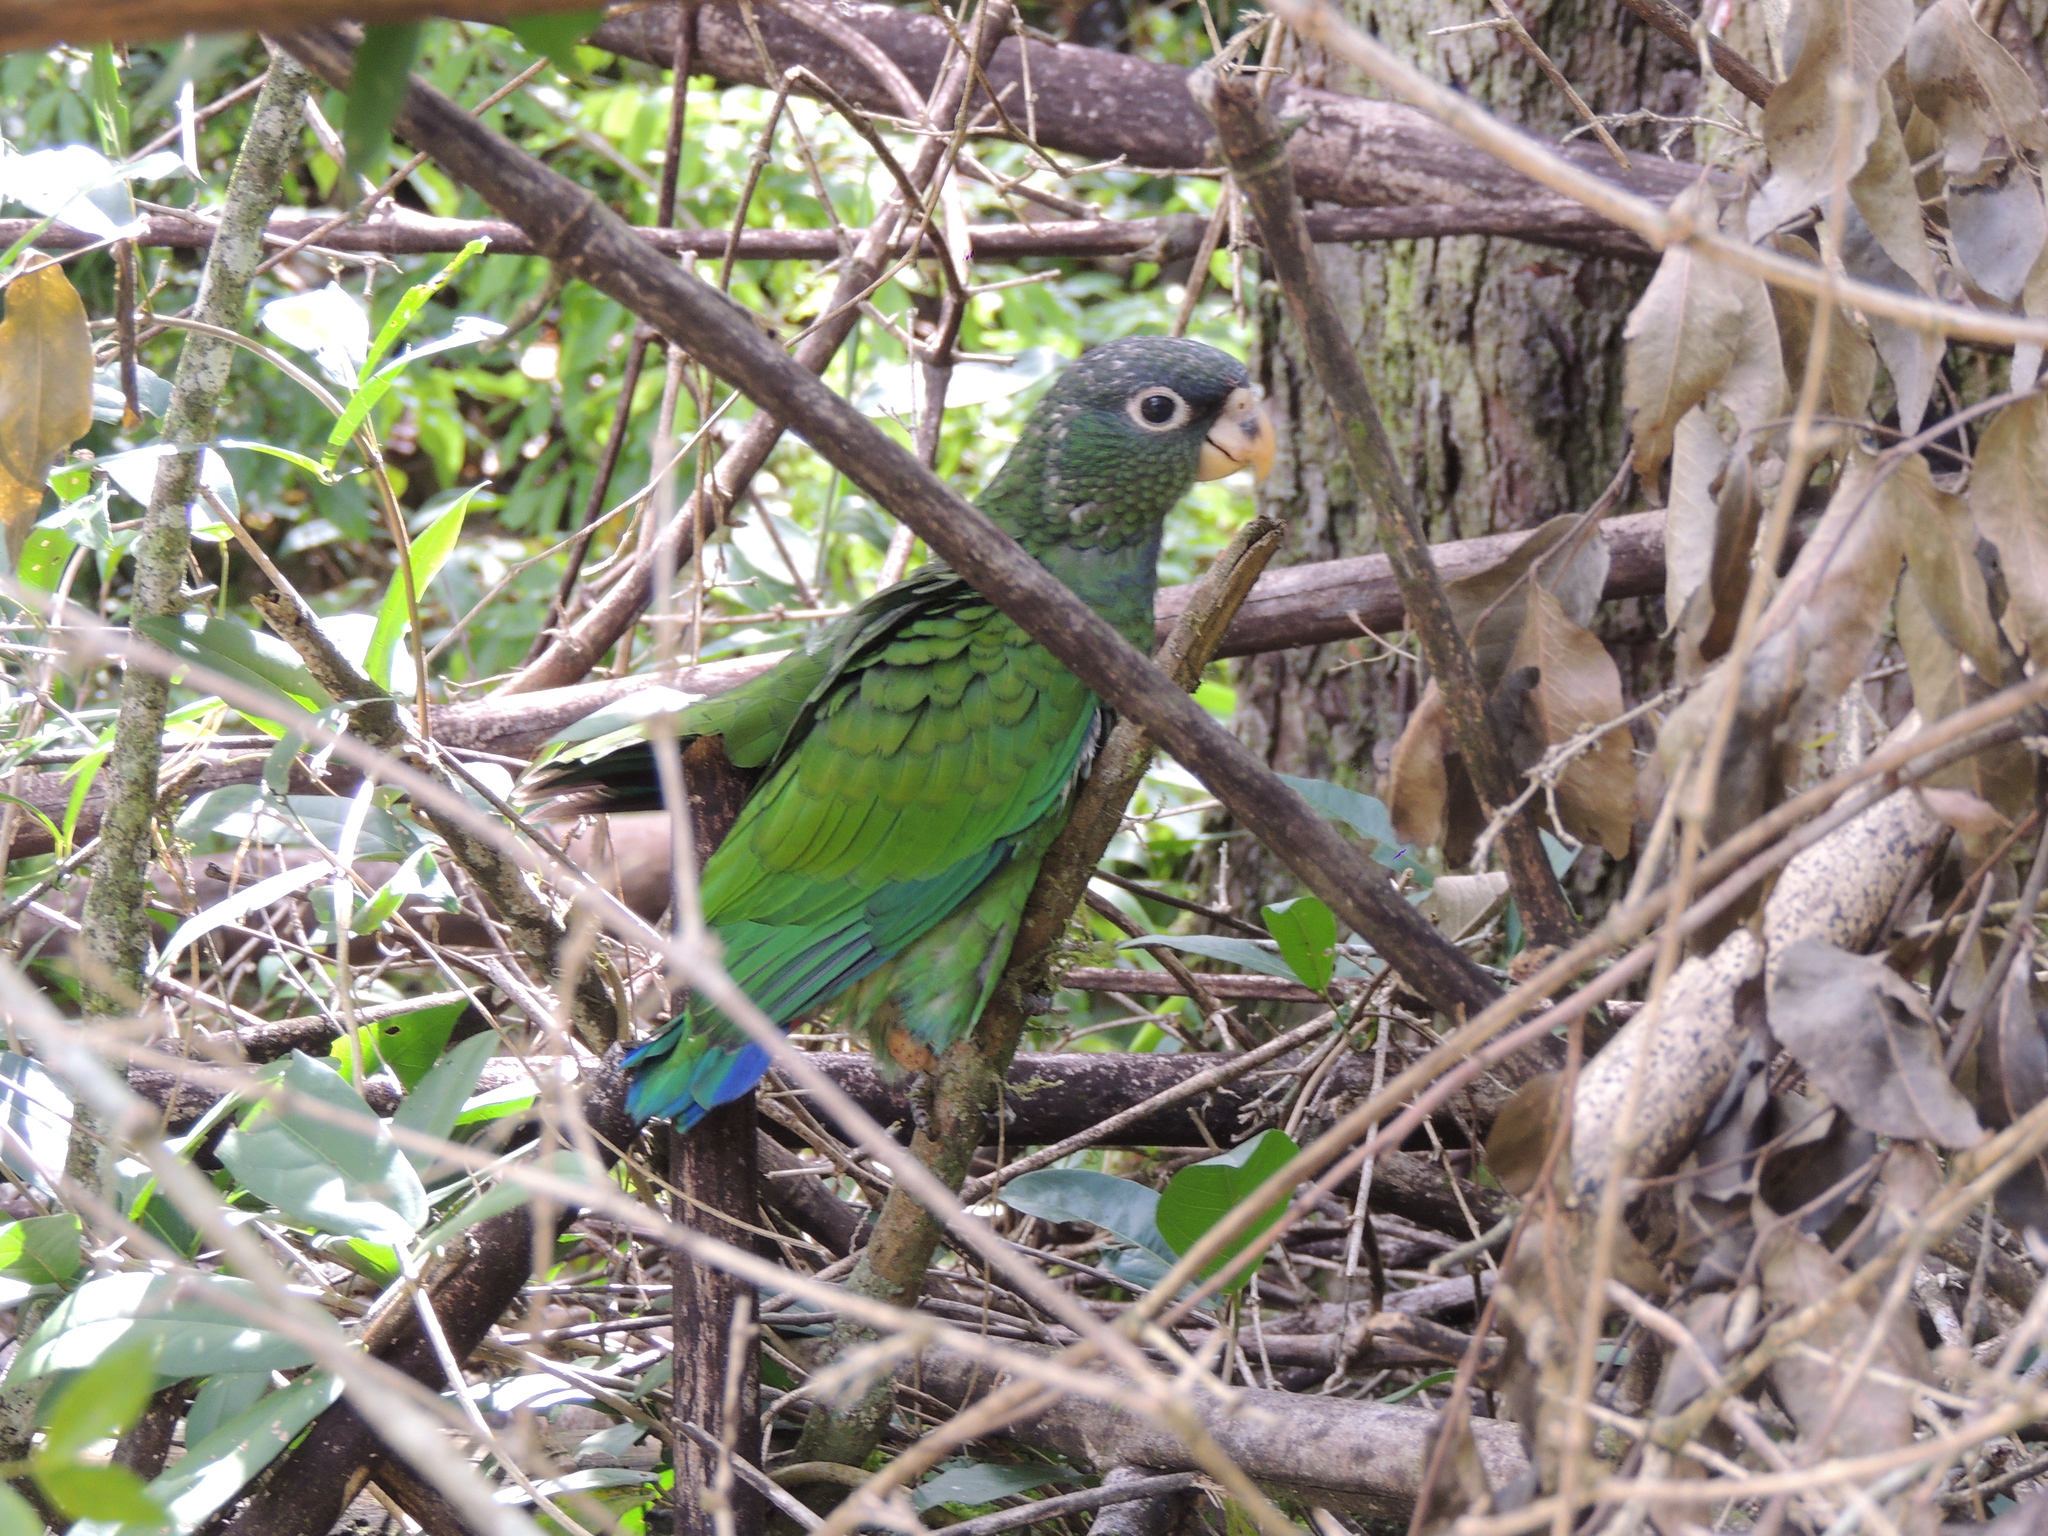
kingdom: Animalia
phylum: Chordata
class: Aves
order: Psittaciformes
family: Psittacidae
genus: Pionus
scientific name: Pionus maximiliani
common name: Scaly-headed parrot
